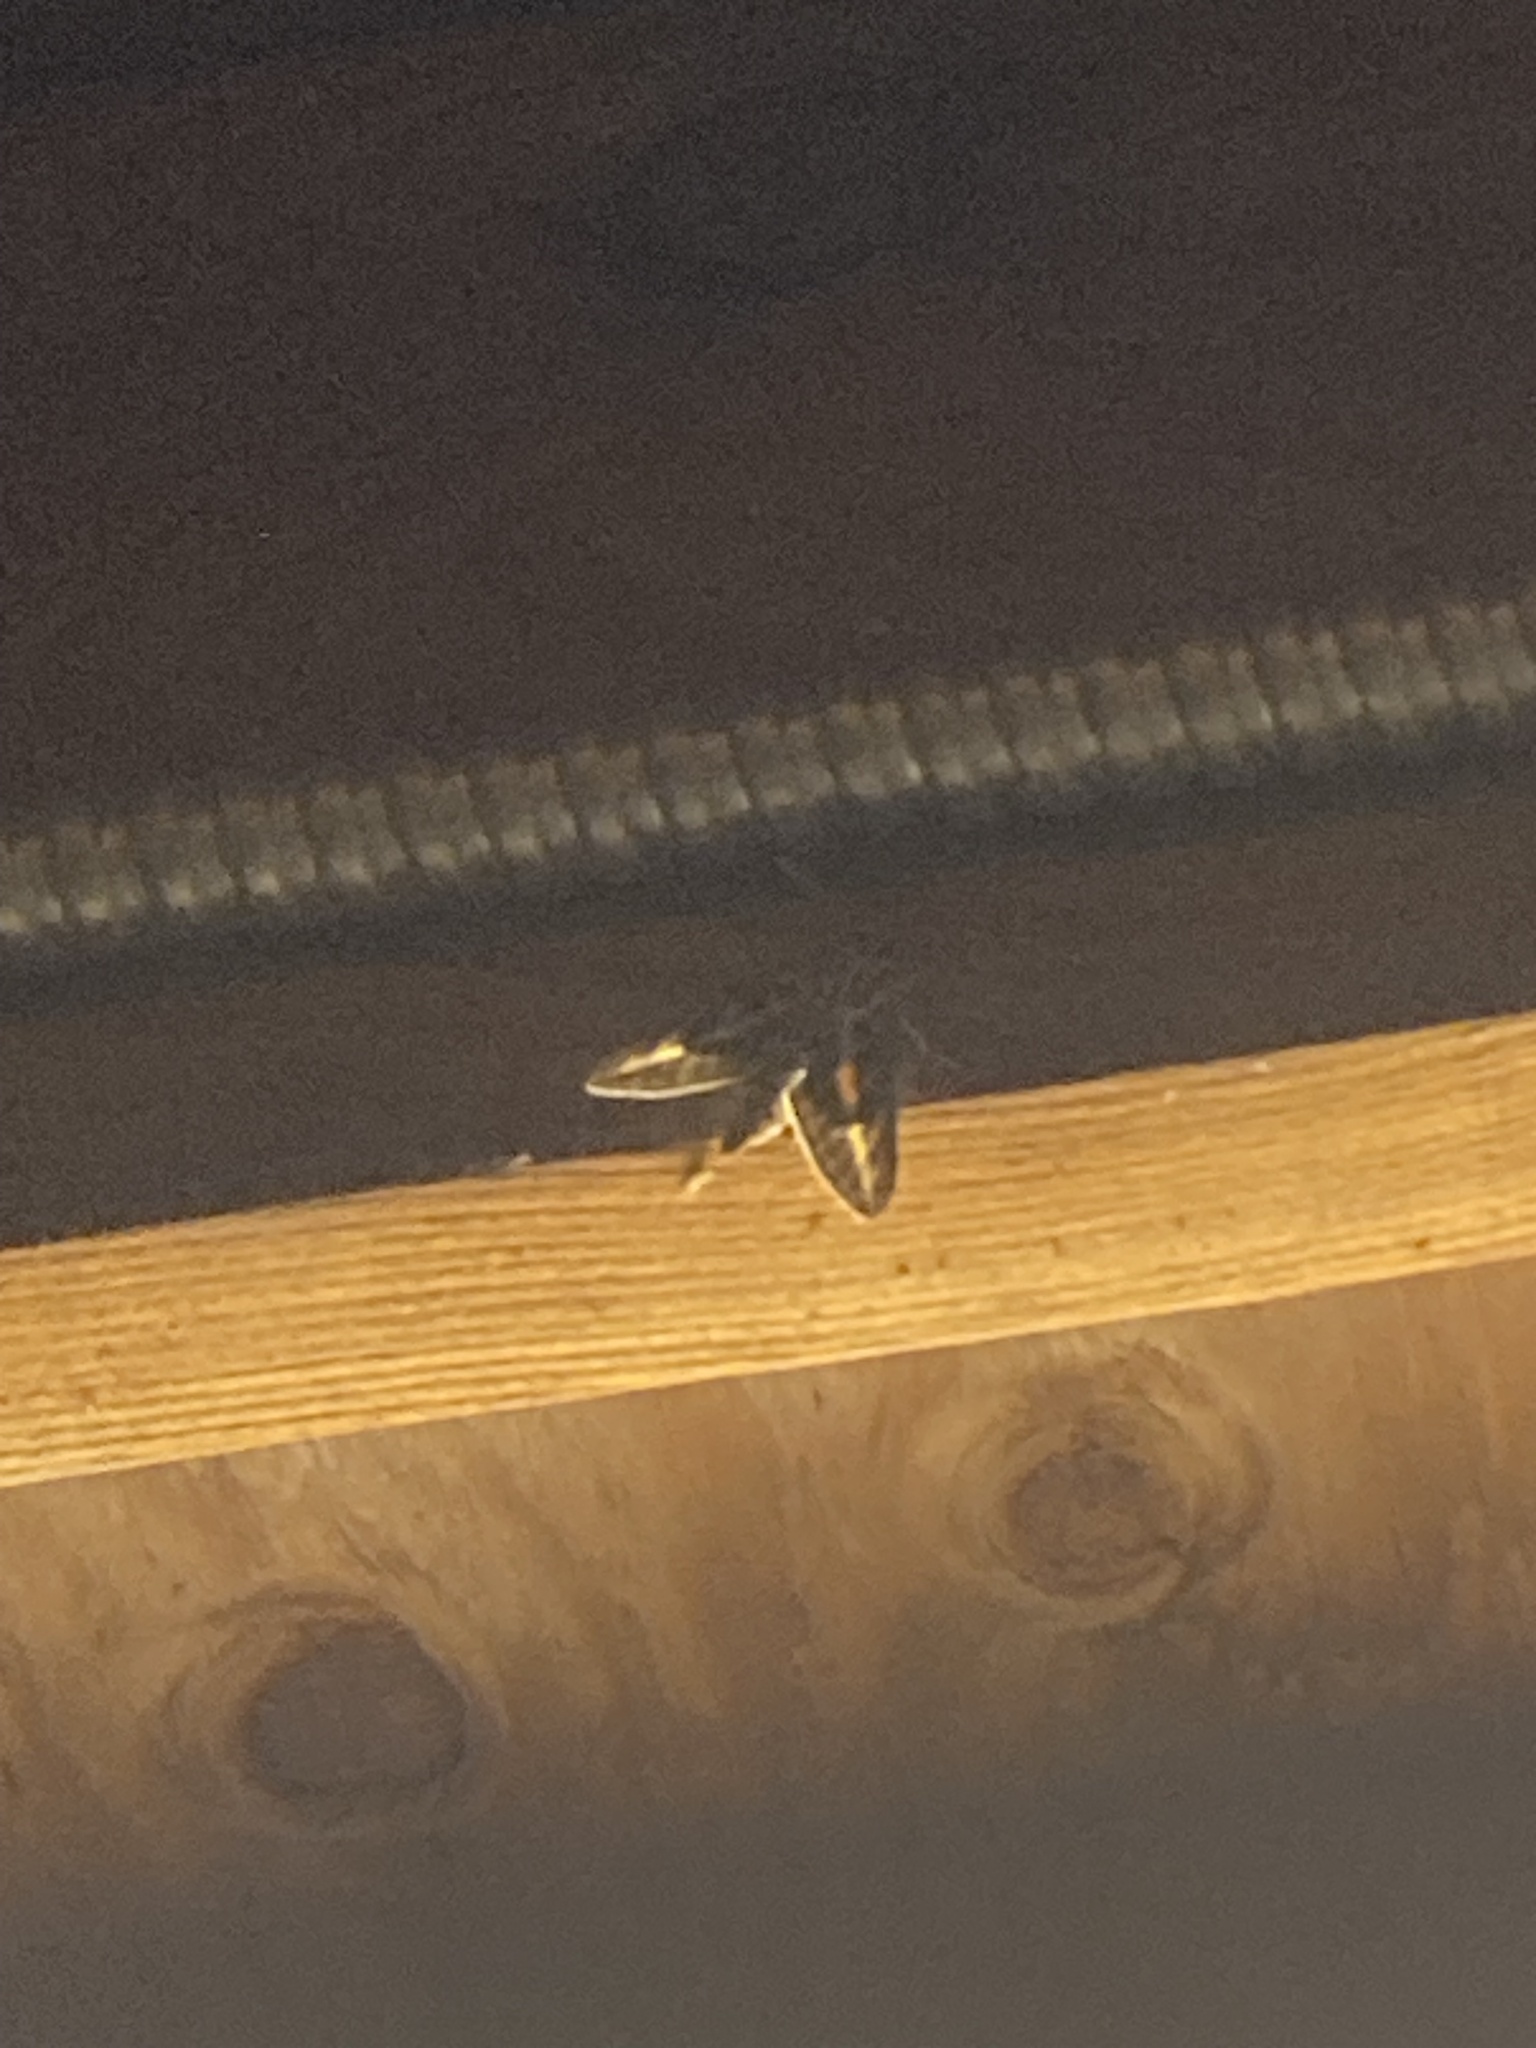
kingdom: Animalia
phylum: Arthropoda
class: Insecta
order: Lepidoptera
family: Sphingidae
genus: Hyles
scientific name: Hyles lineata
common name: White-lined sphinx
